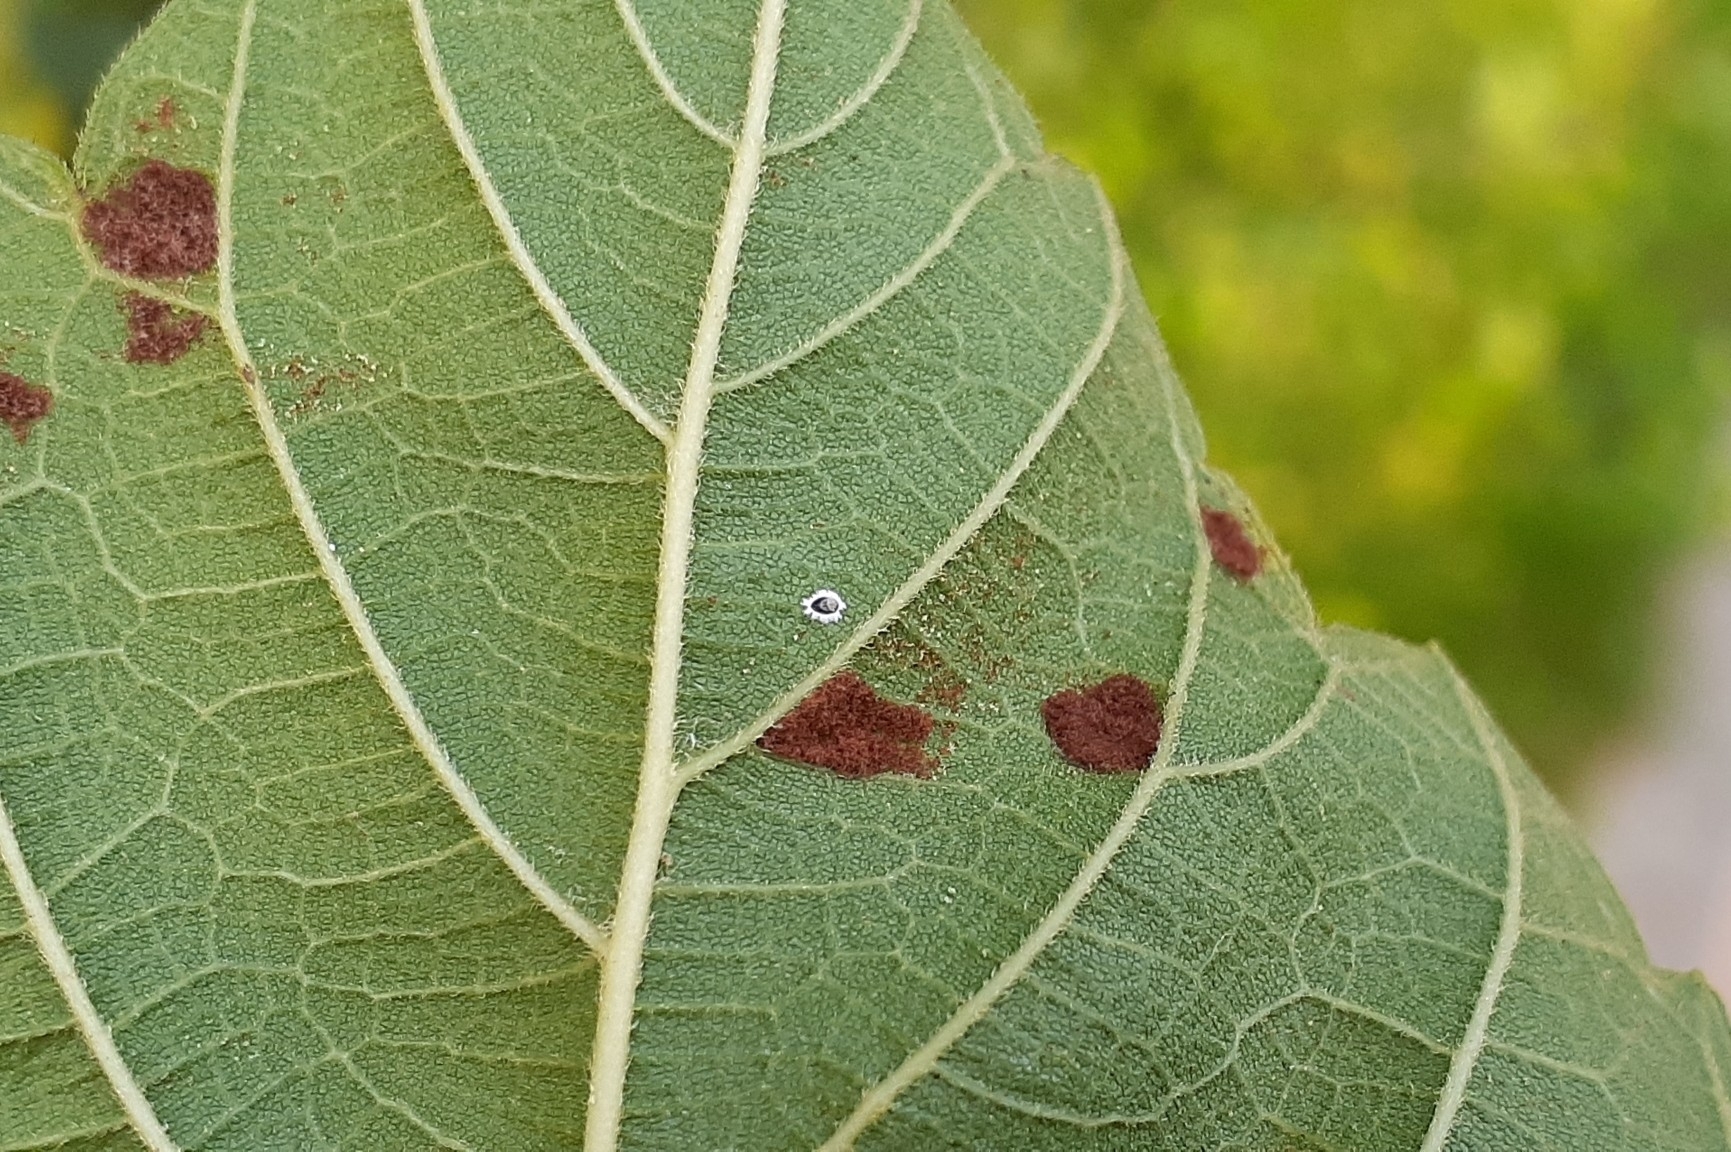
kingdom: Animalia
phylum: Arthropoda
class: Arachnida
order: Trombidiformes
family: Eriophyidae
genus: Aceria
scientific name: Aceria
